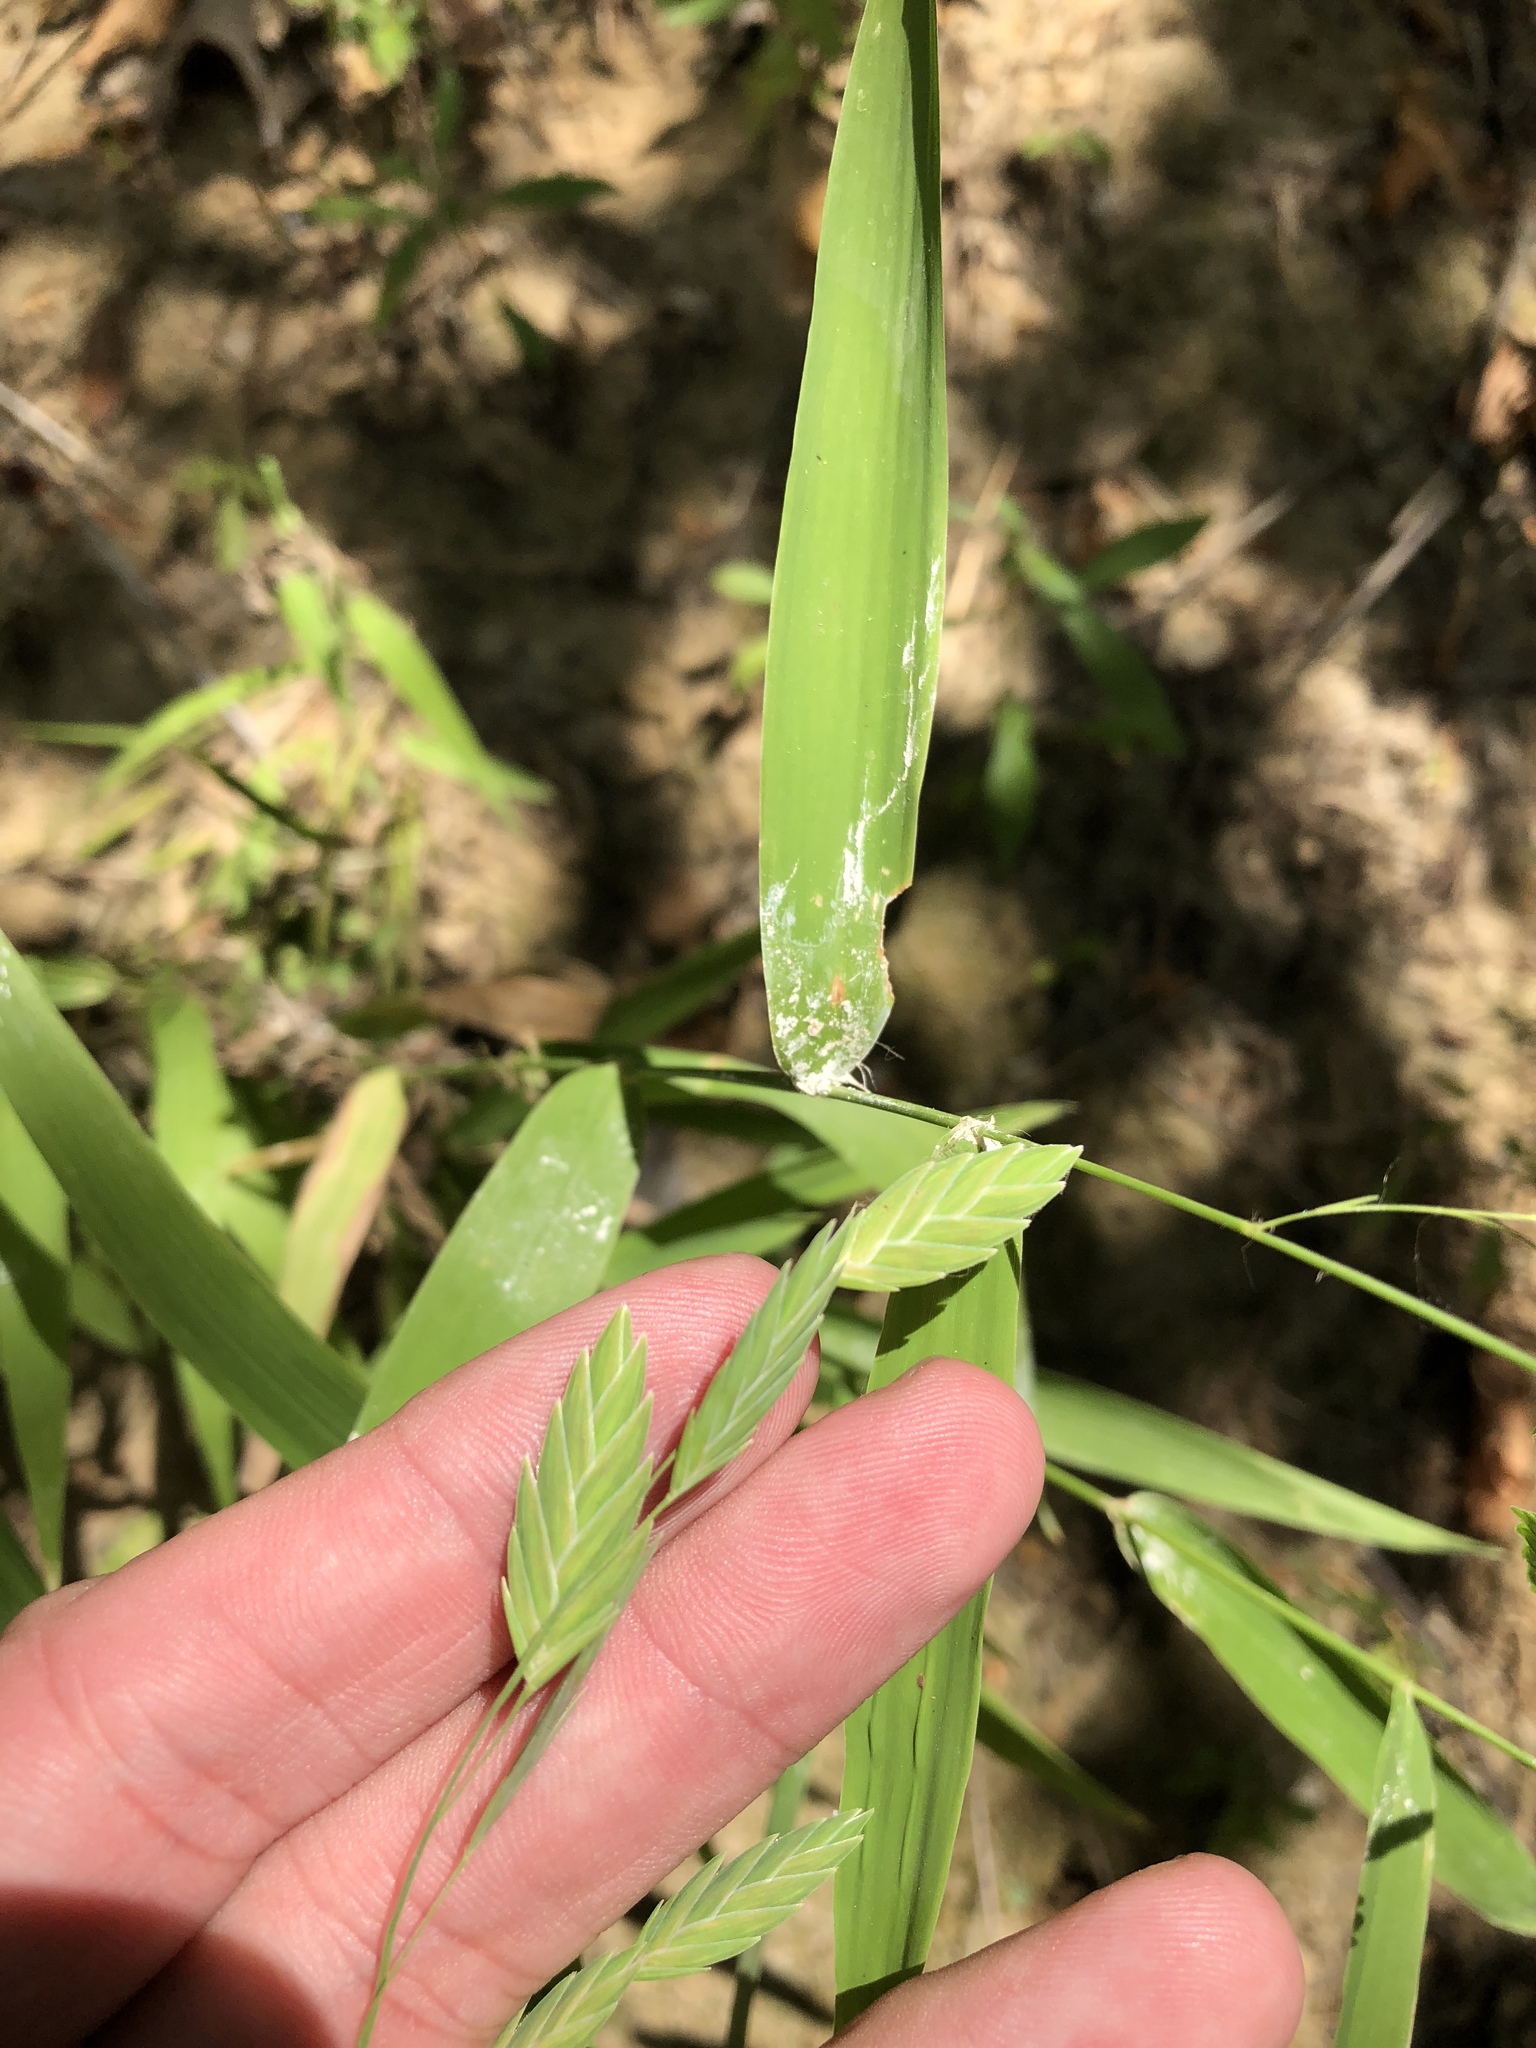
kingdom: Plantae
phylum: Tracheophyta
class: Liliopsida
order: Poales
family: Poaceae
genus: Chasmanthium
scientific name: Chasmanthium latifolium
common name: Broad-leaved chasmanthium
